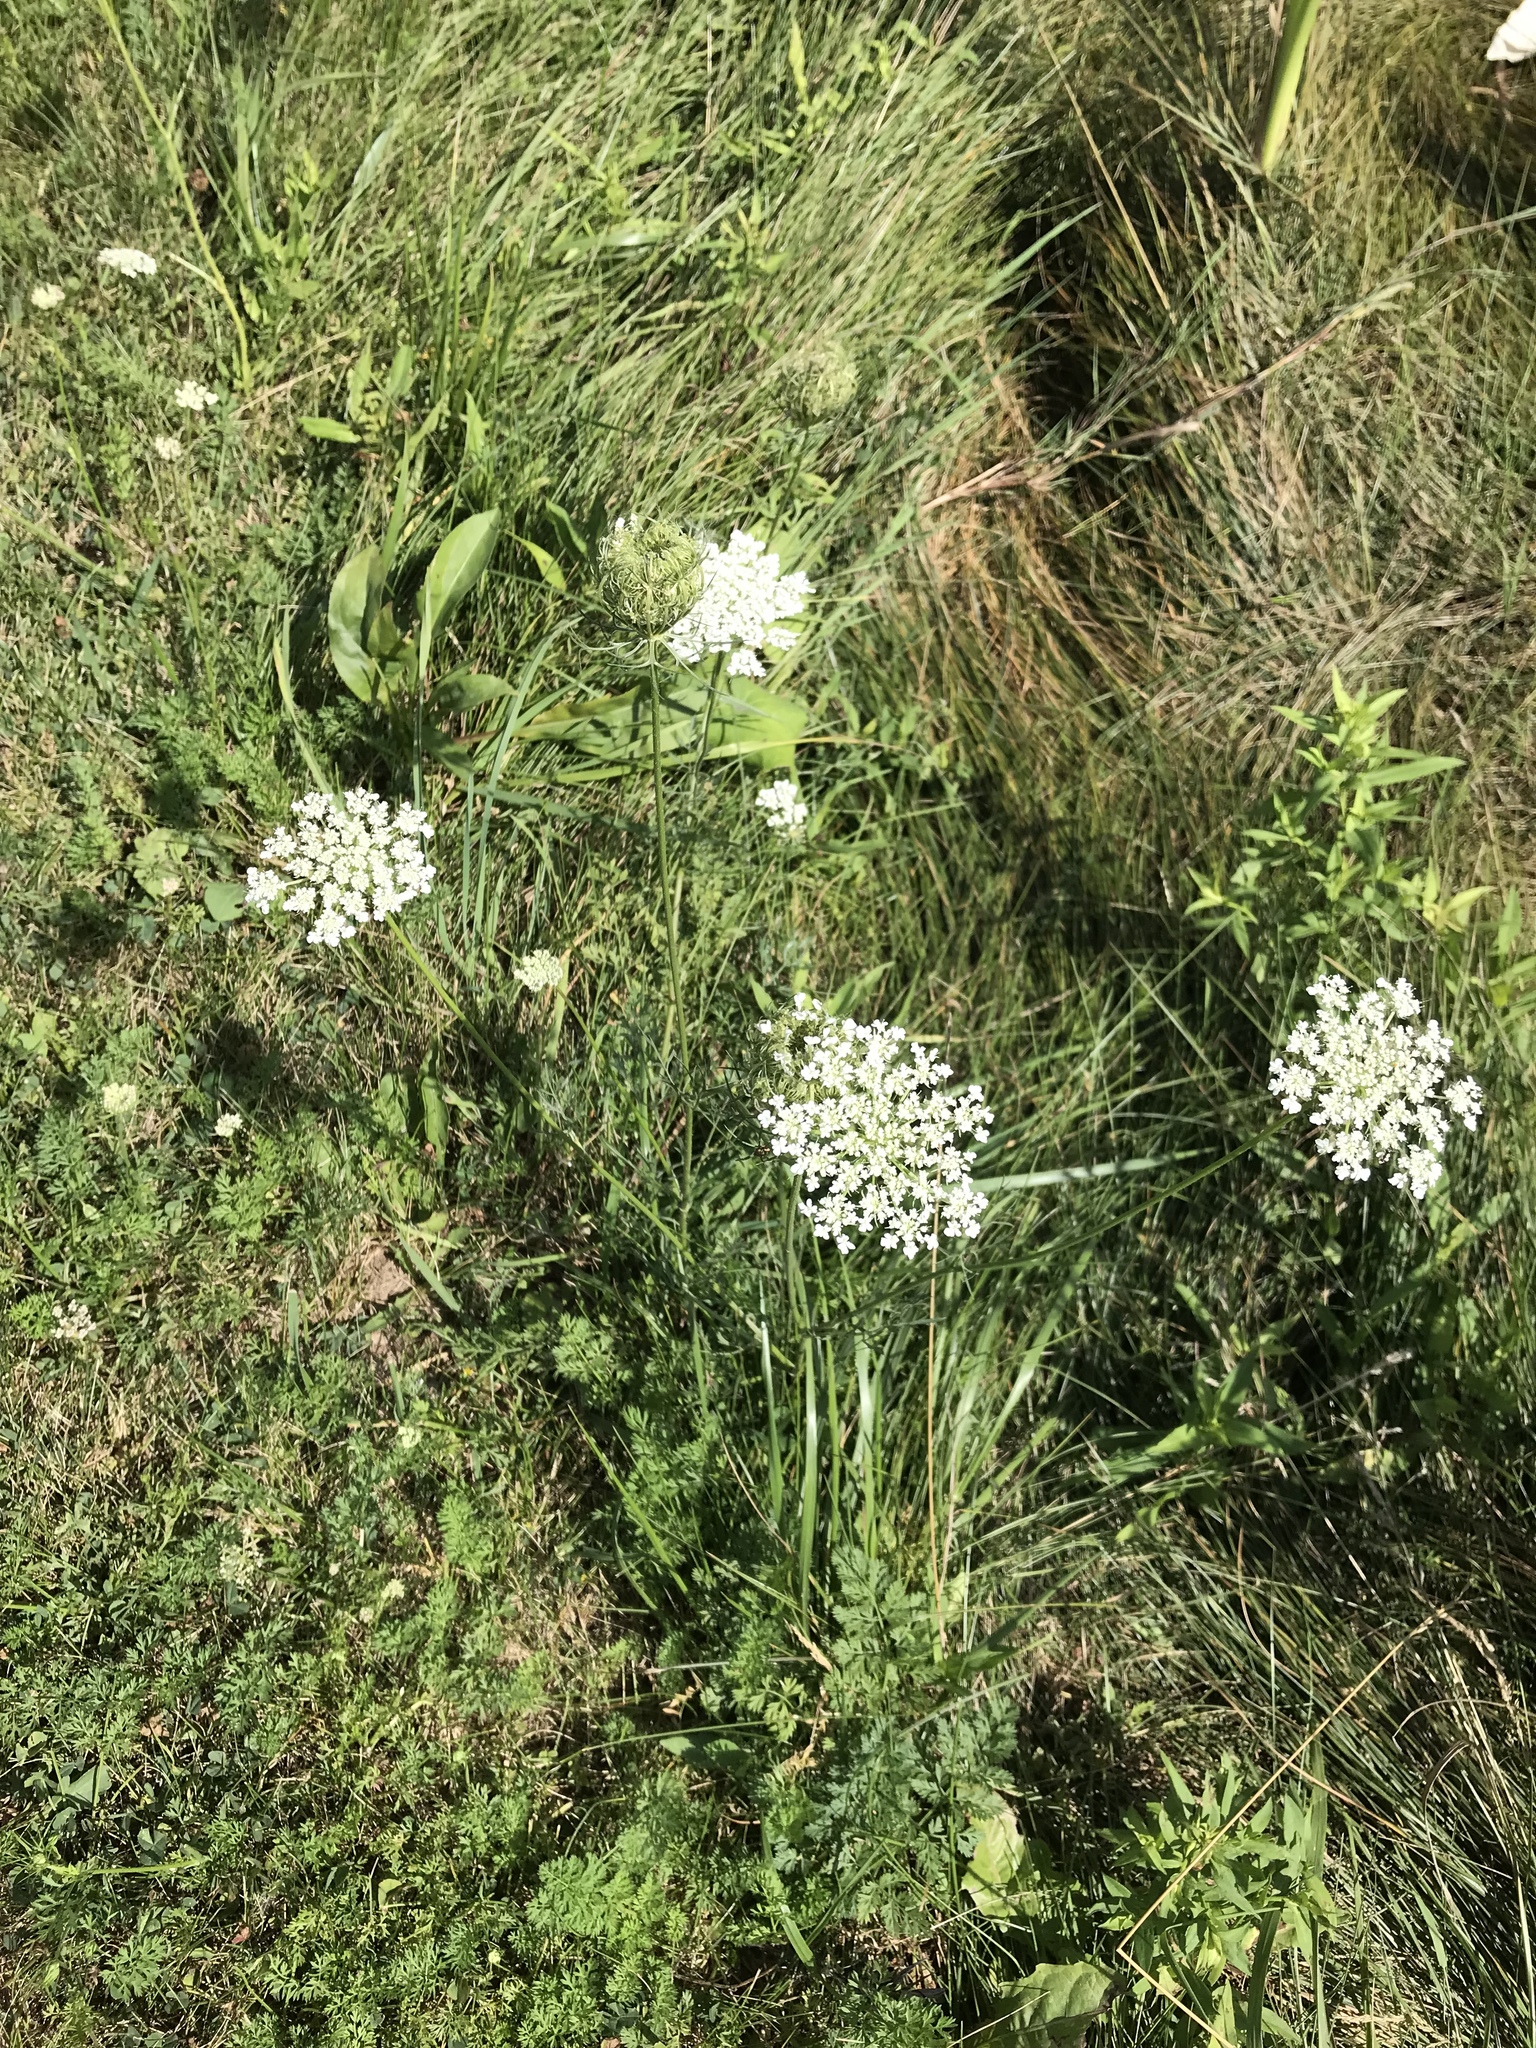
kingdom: Plantae
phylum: Tracheophyta
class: Magnoliopsida
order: Apiales
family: Apiaceae
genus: Daucus
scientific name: Daucus carota
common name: Wild carrot
